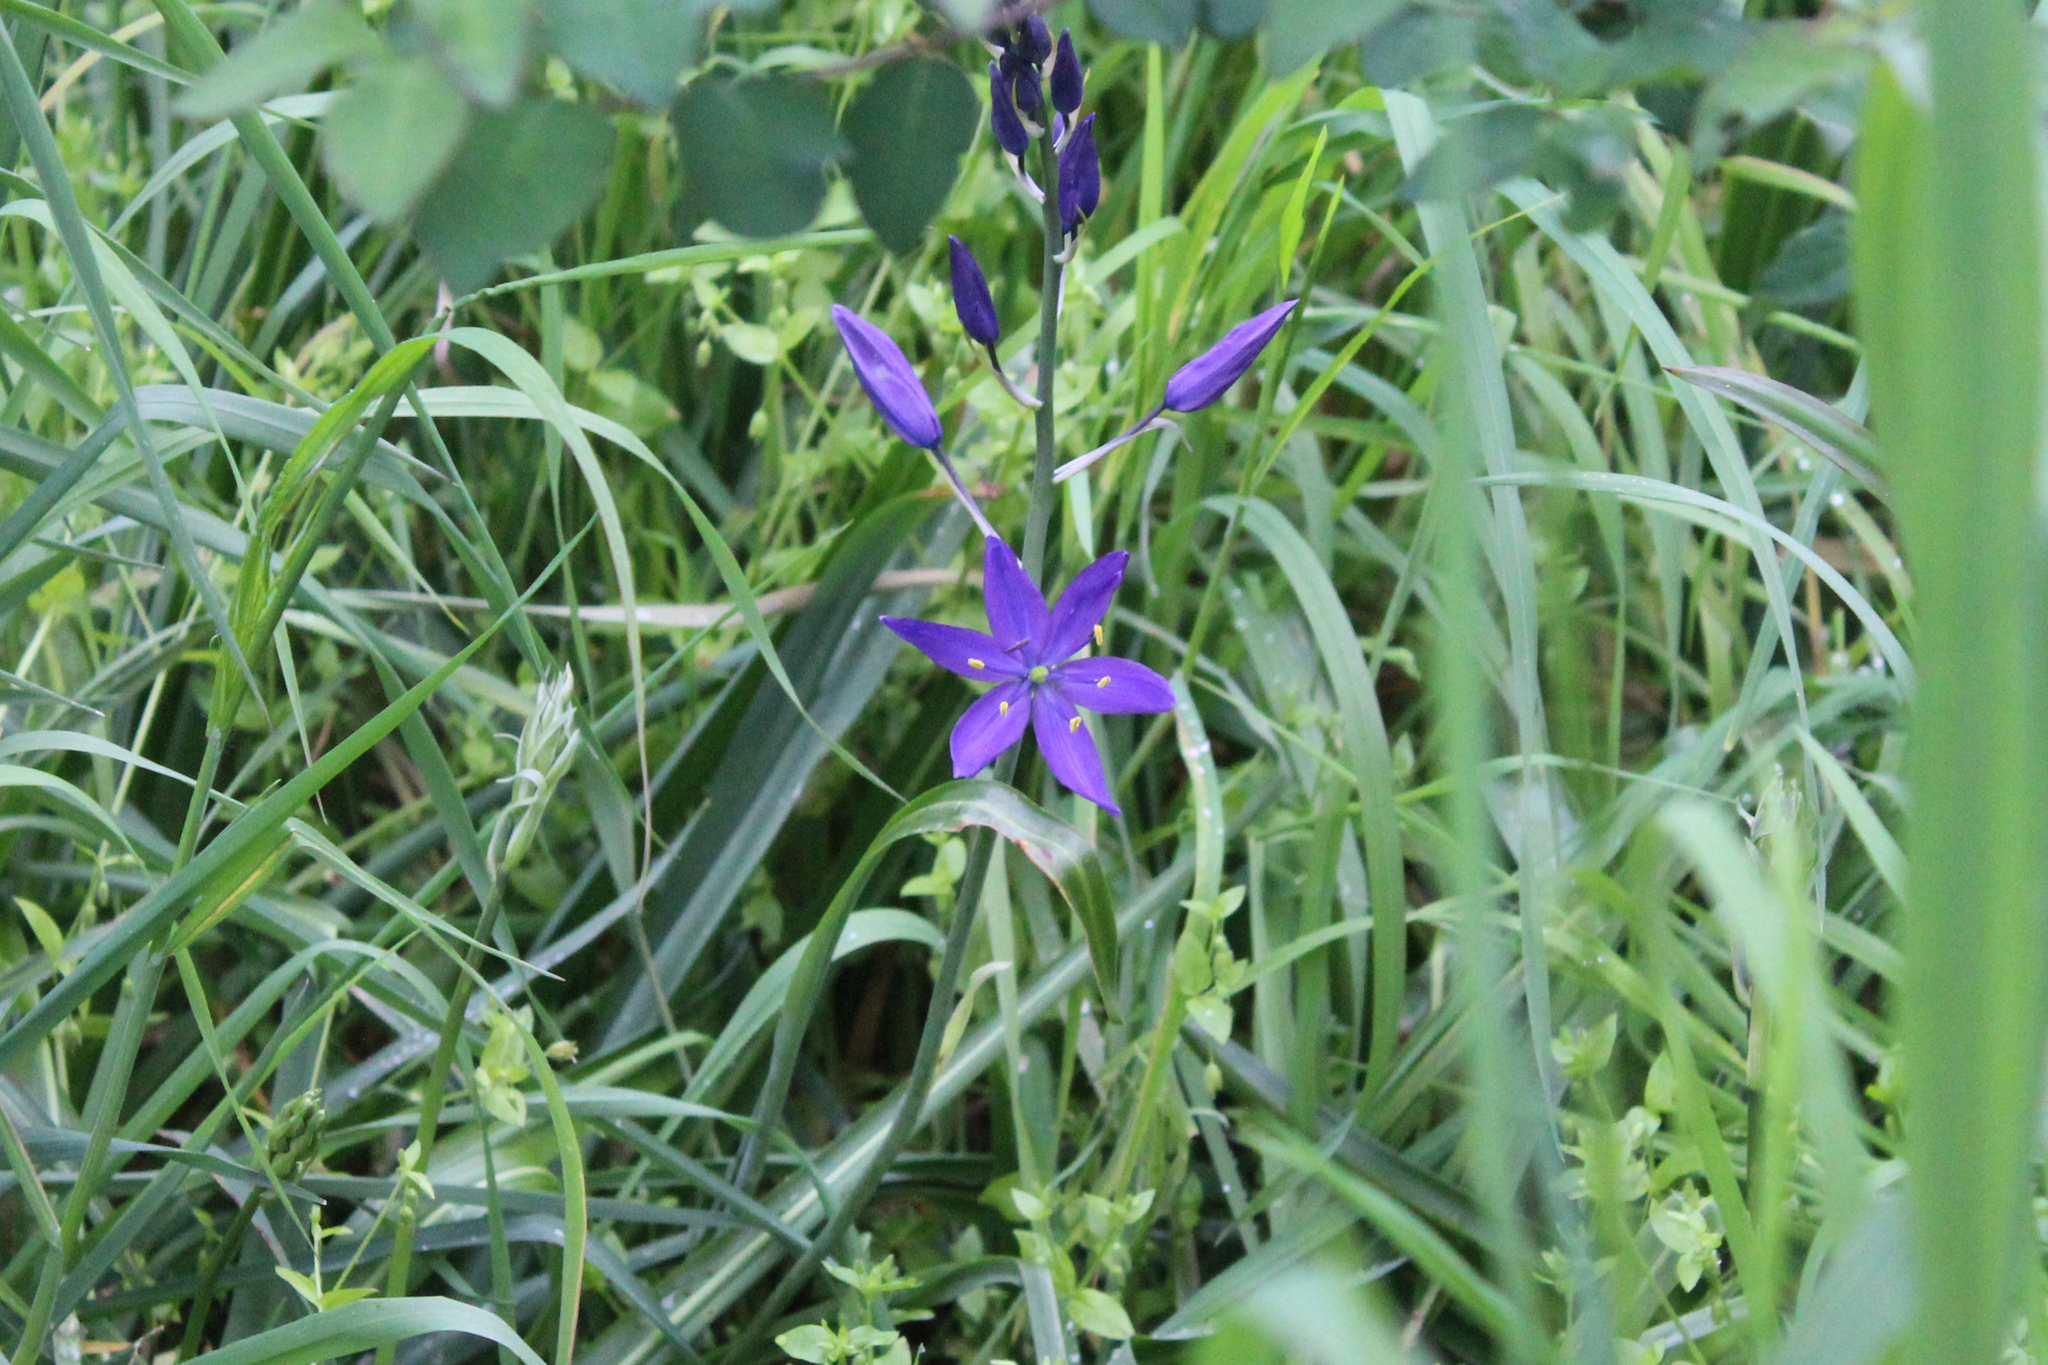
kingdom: Plantae
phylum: Tracheophyta
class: Liliopsida
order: Asparagales
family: Asparagaceae
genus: Camassia
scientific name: Camassia leichtlinii
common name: Leichtlin's camas
